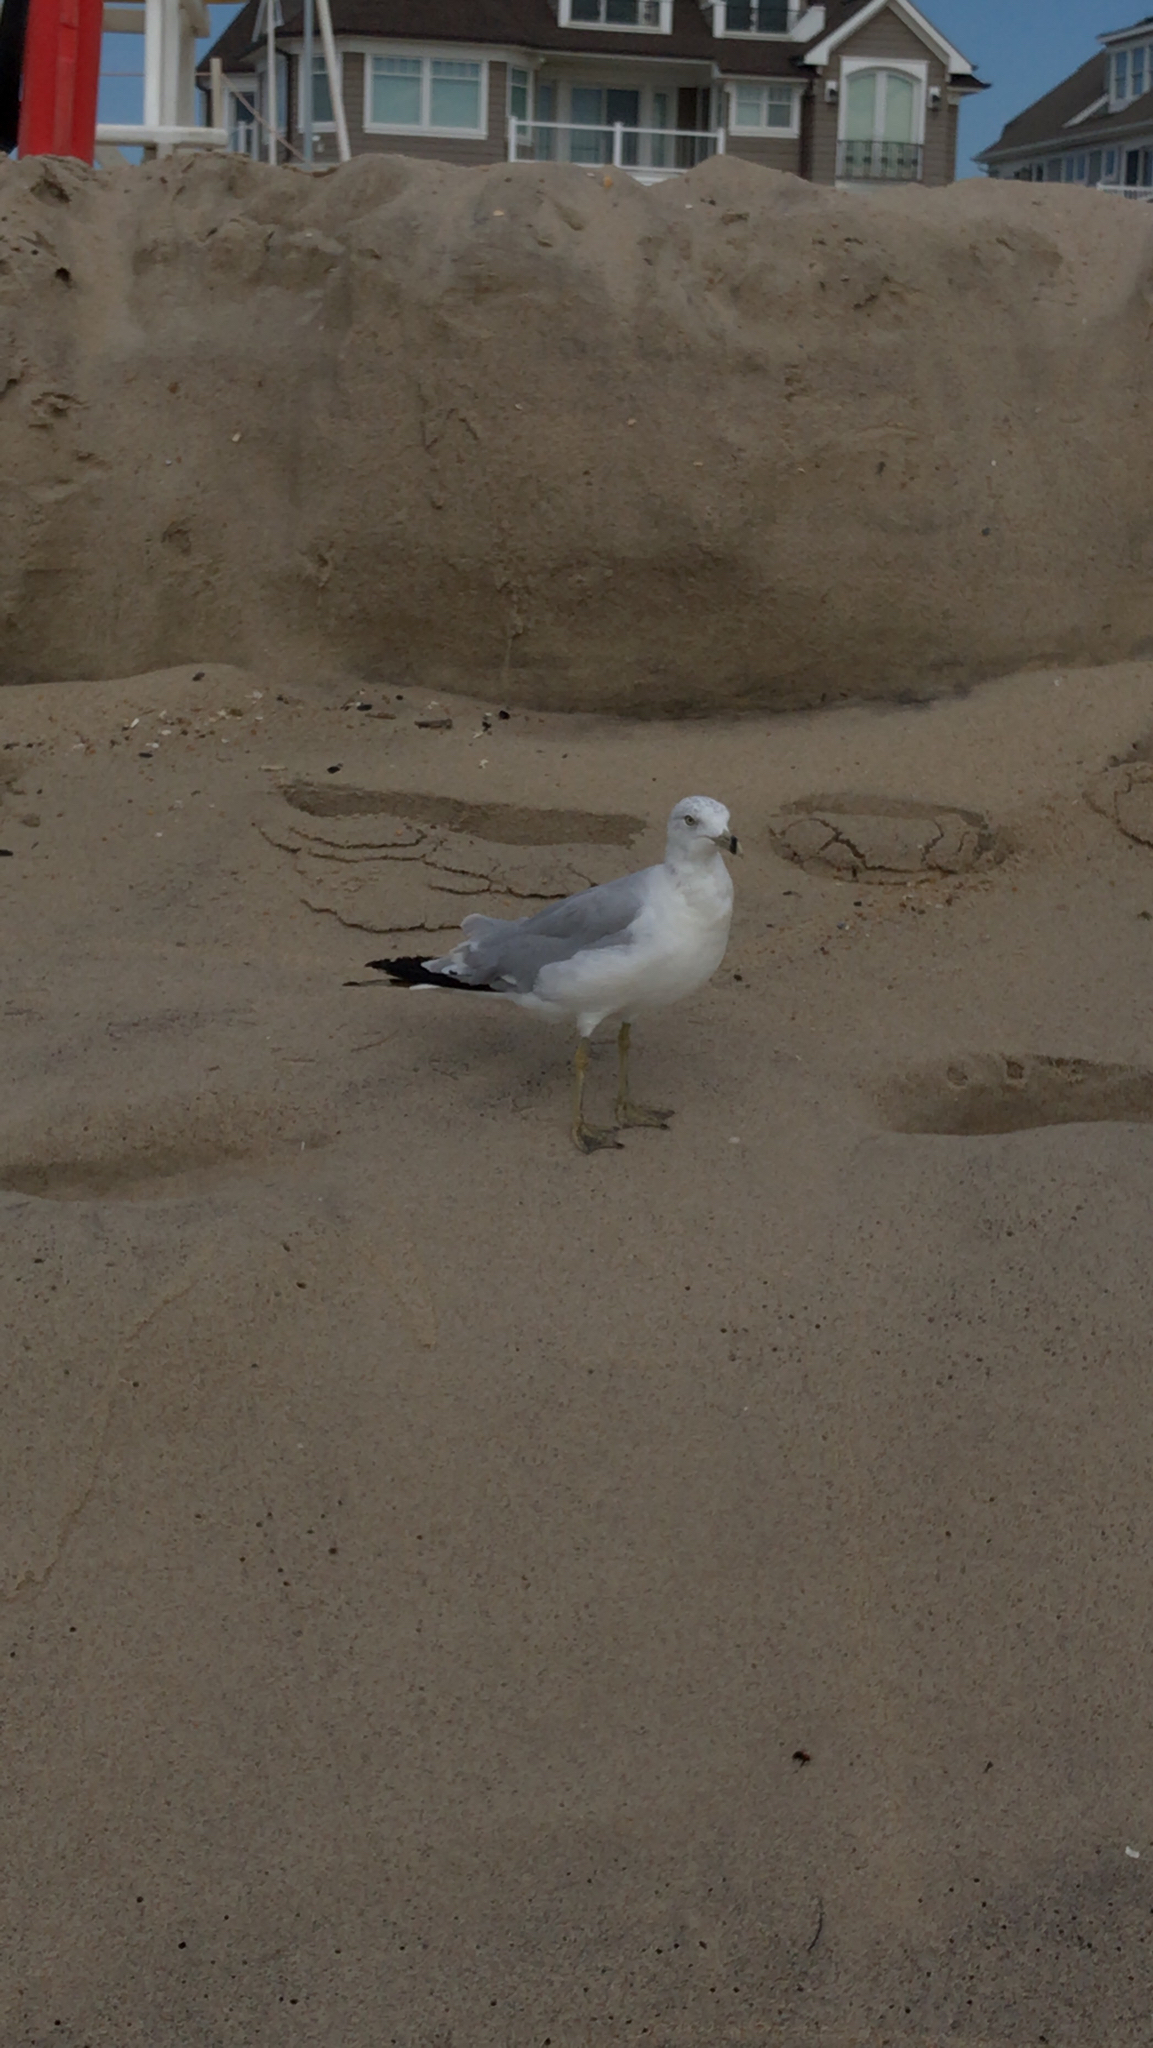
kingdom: Animalia
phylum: Chordata
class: Aves
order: Charadriiformes
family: Laridae
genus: Larus
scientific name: Larus delawarensis
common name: Ring-billed gull
